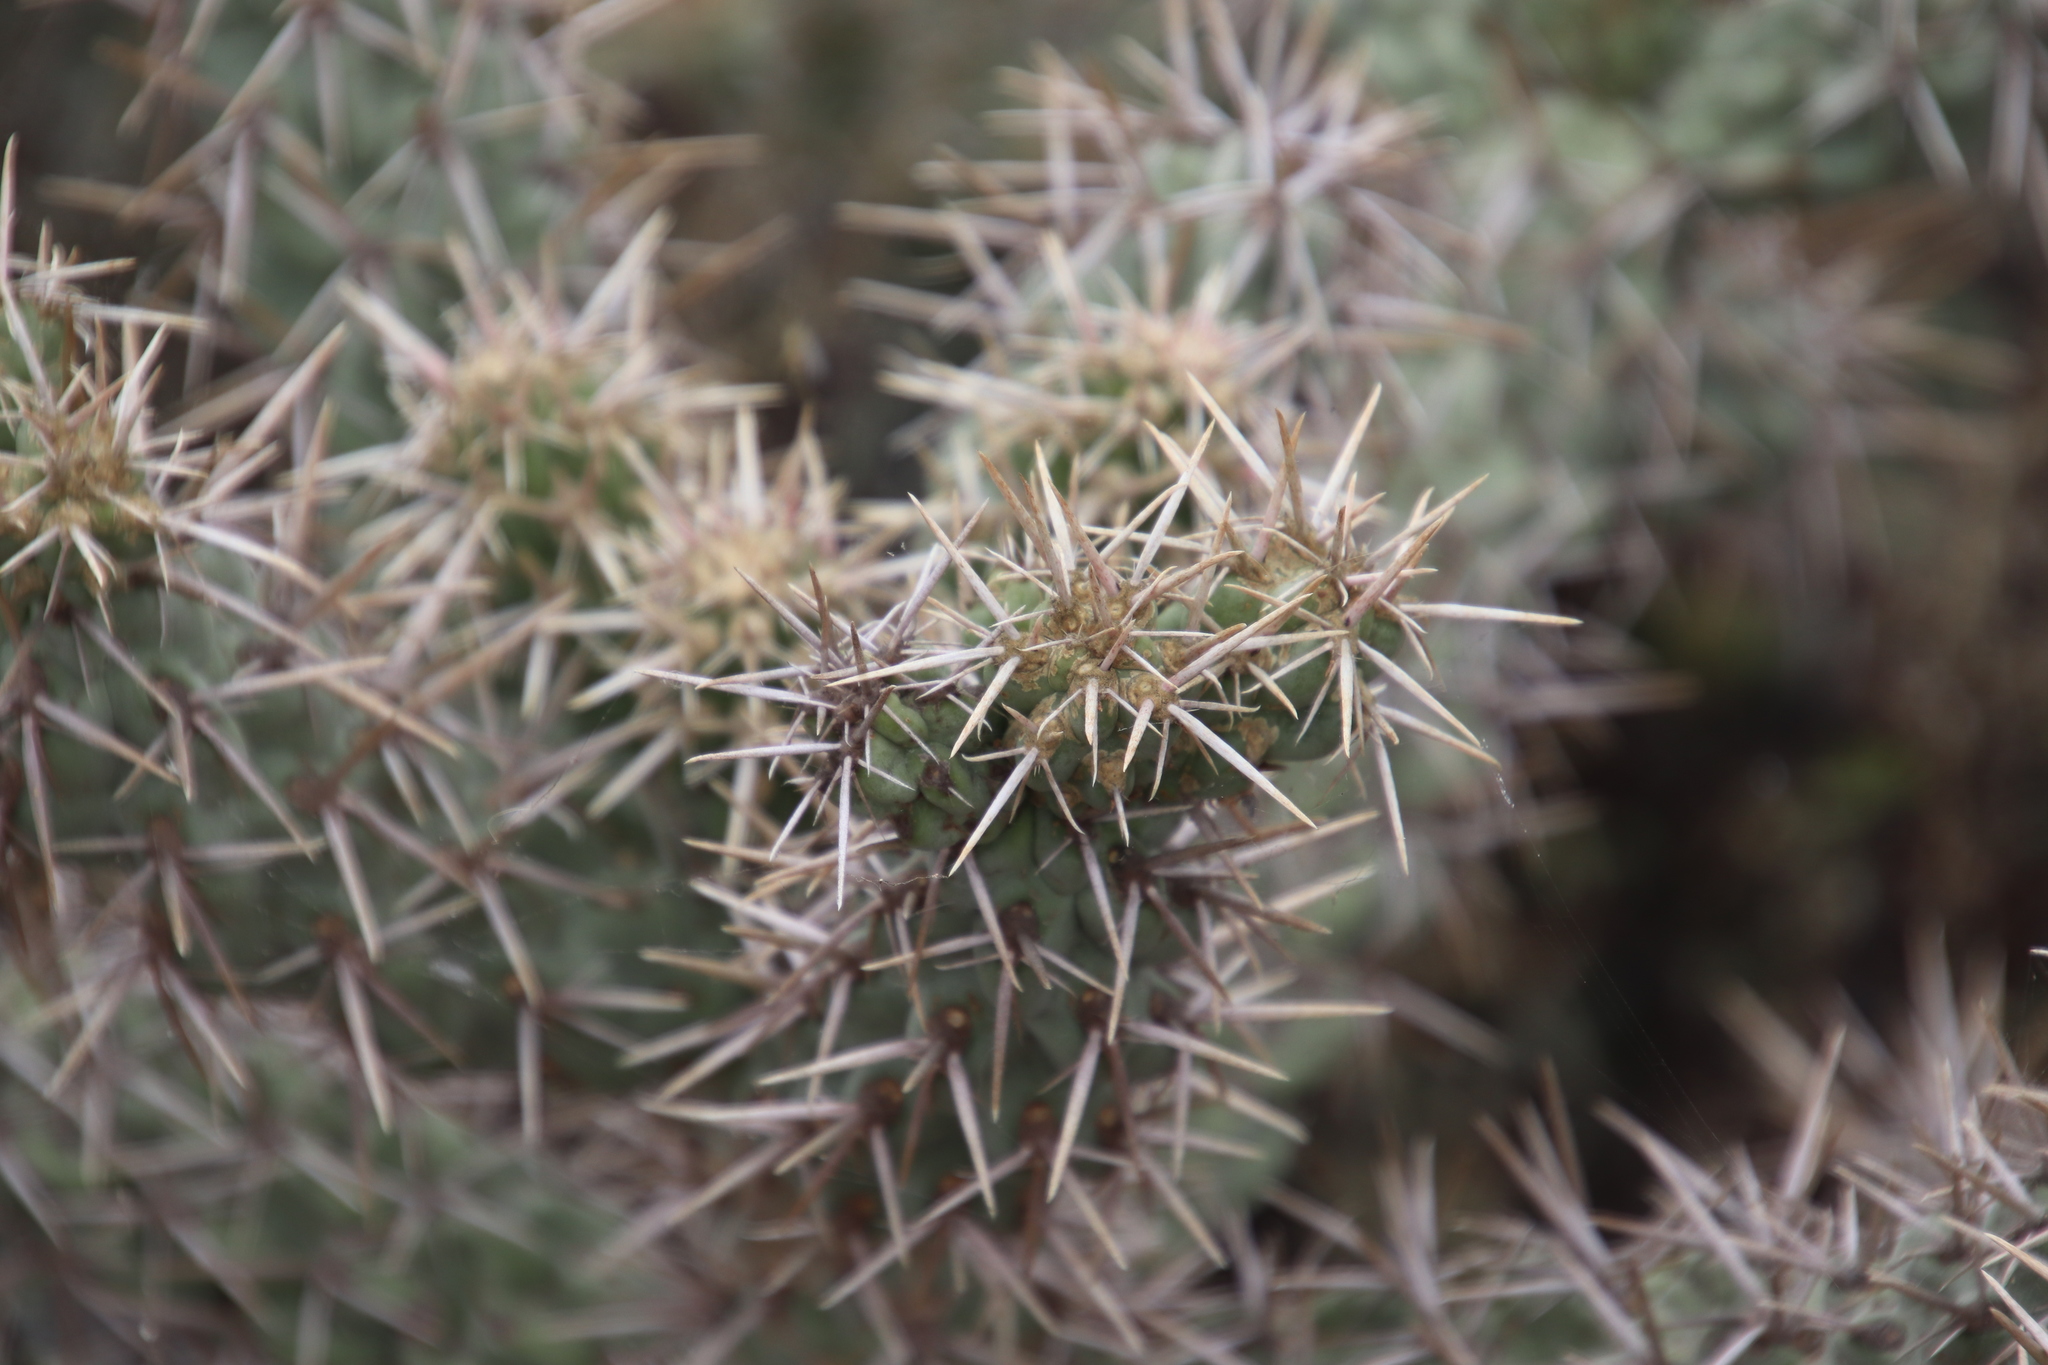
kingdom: Plantae
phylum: Tracheophyta
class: Magnoliopsida
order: Caryophyllales
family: Cactaceae
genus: Cylindropuntia
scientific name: Cylindropuntia cholla
